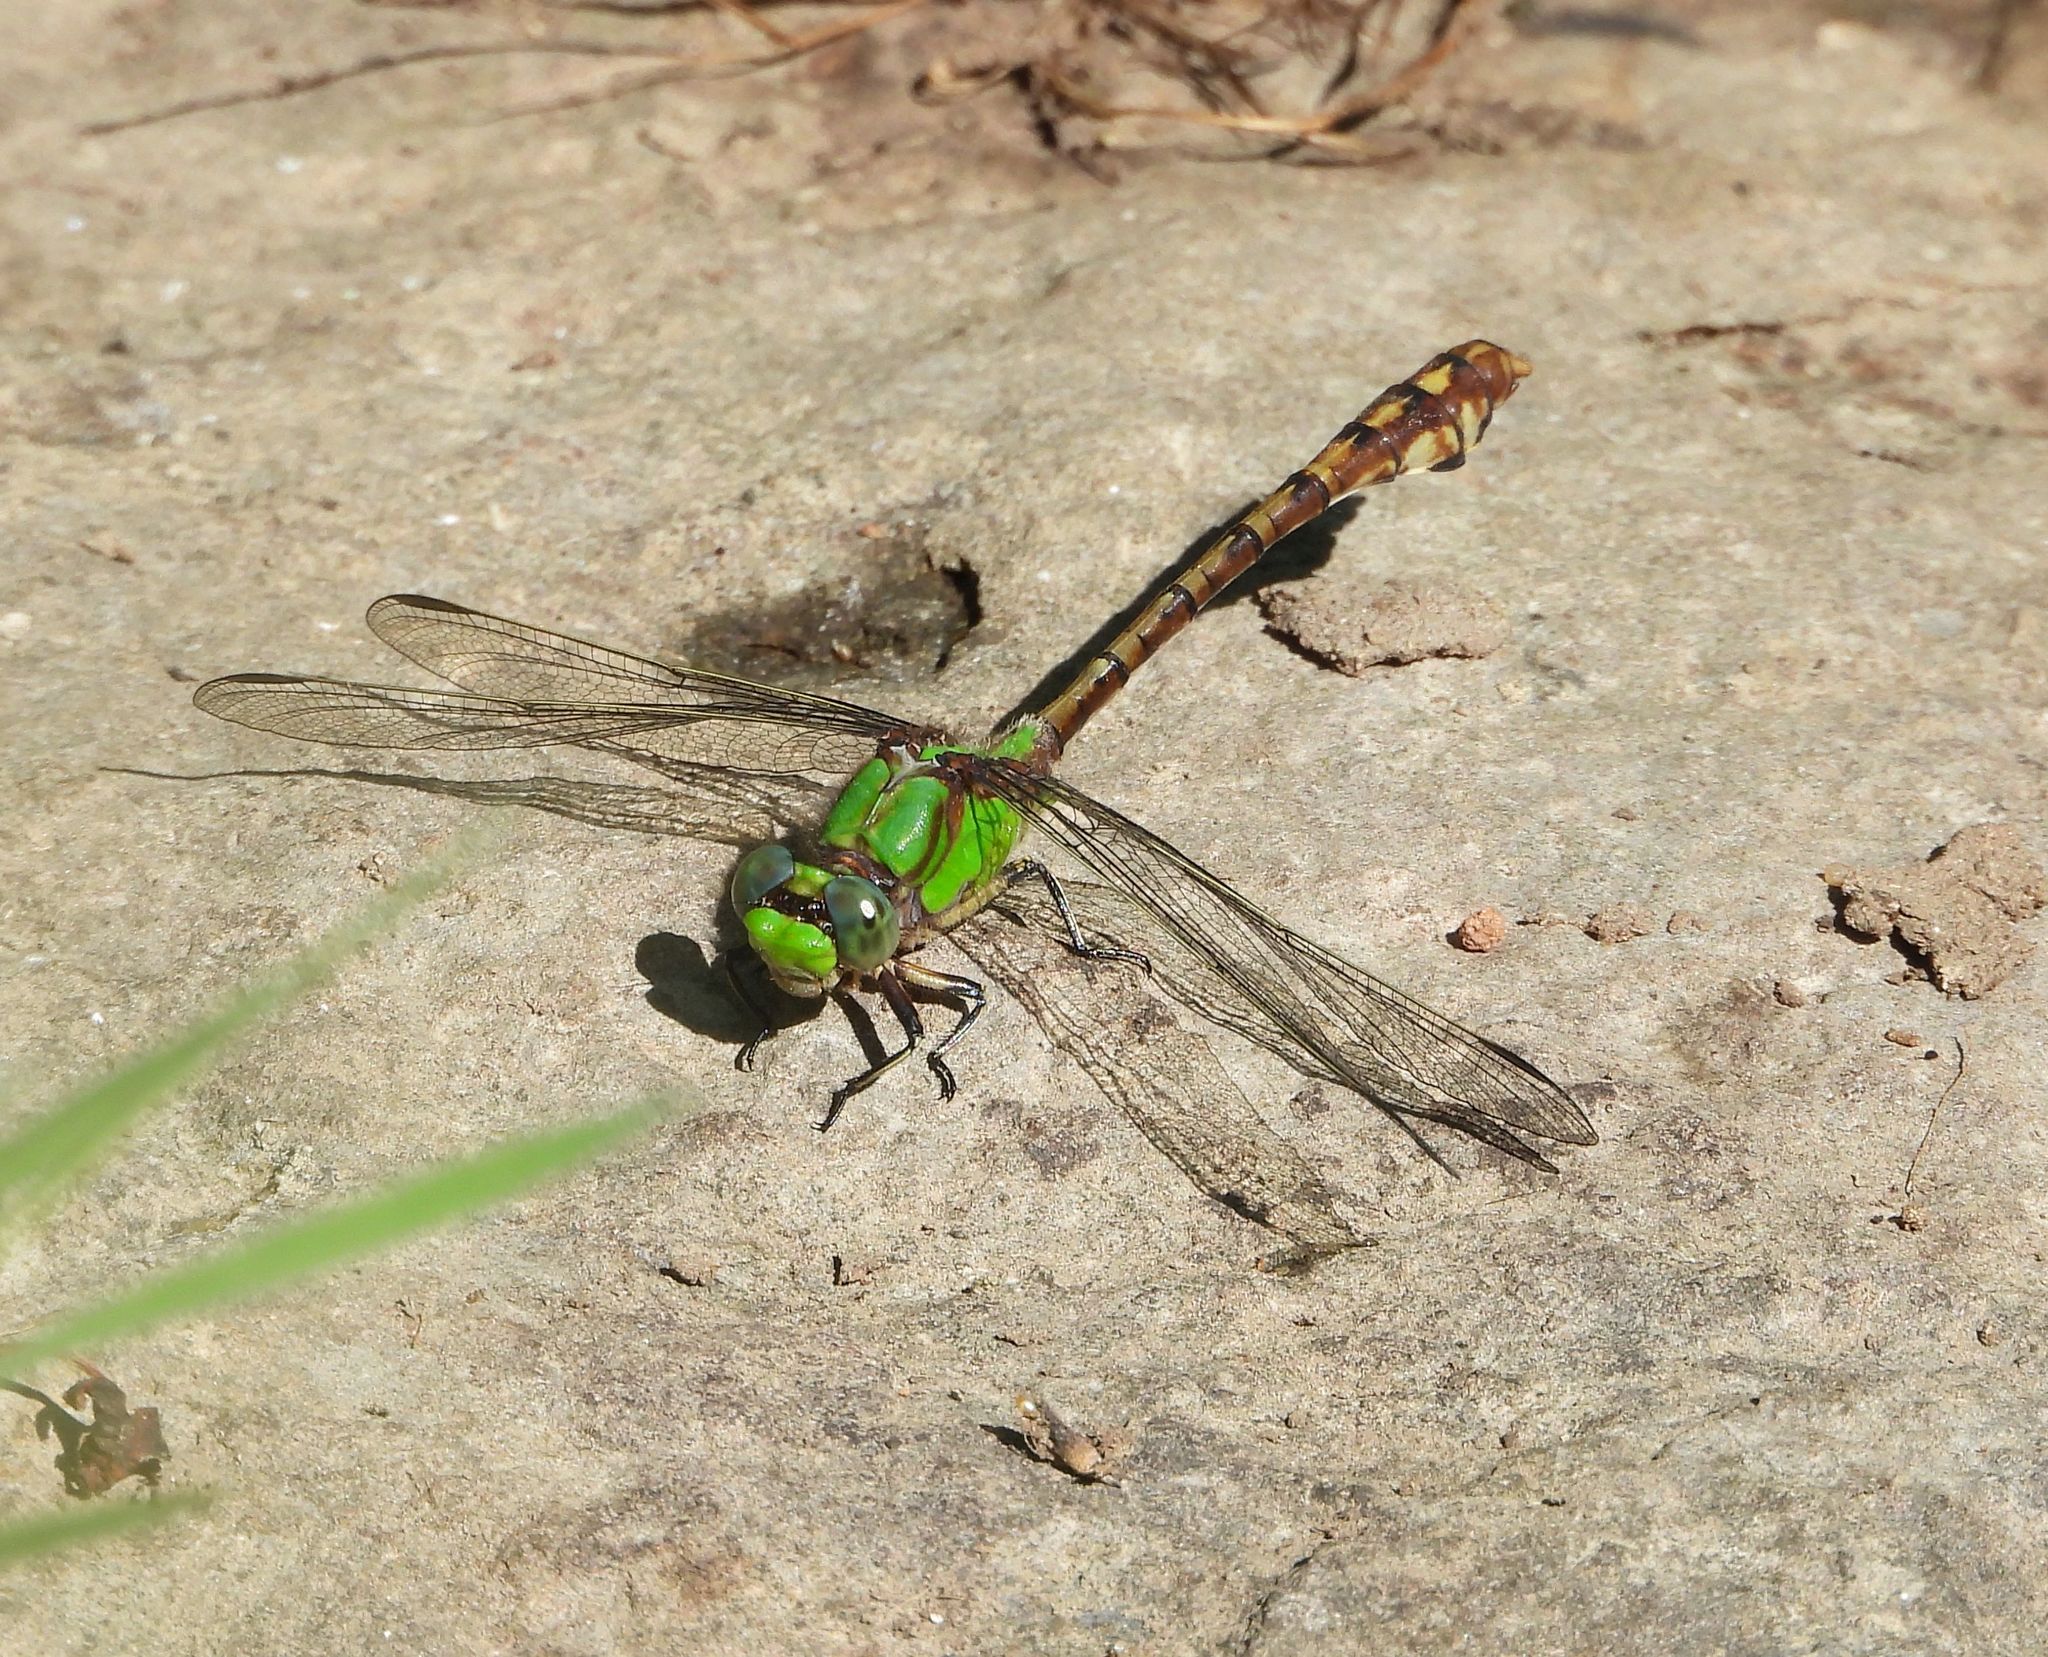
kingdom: Animalia
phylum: Arthropoda
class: Insecta
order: Odonata
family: Gomphidae
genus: Ophiogomphus
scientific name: Ophiogomphus rupinsulensis
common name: Rusty snaketail
